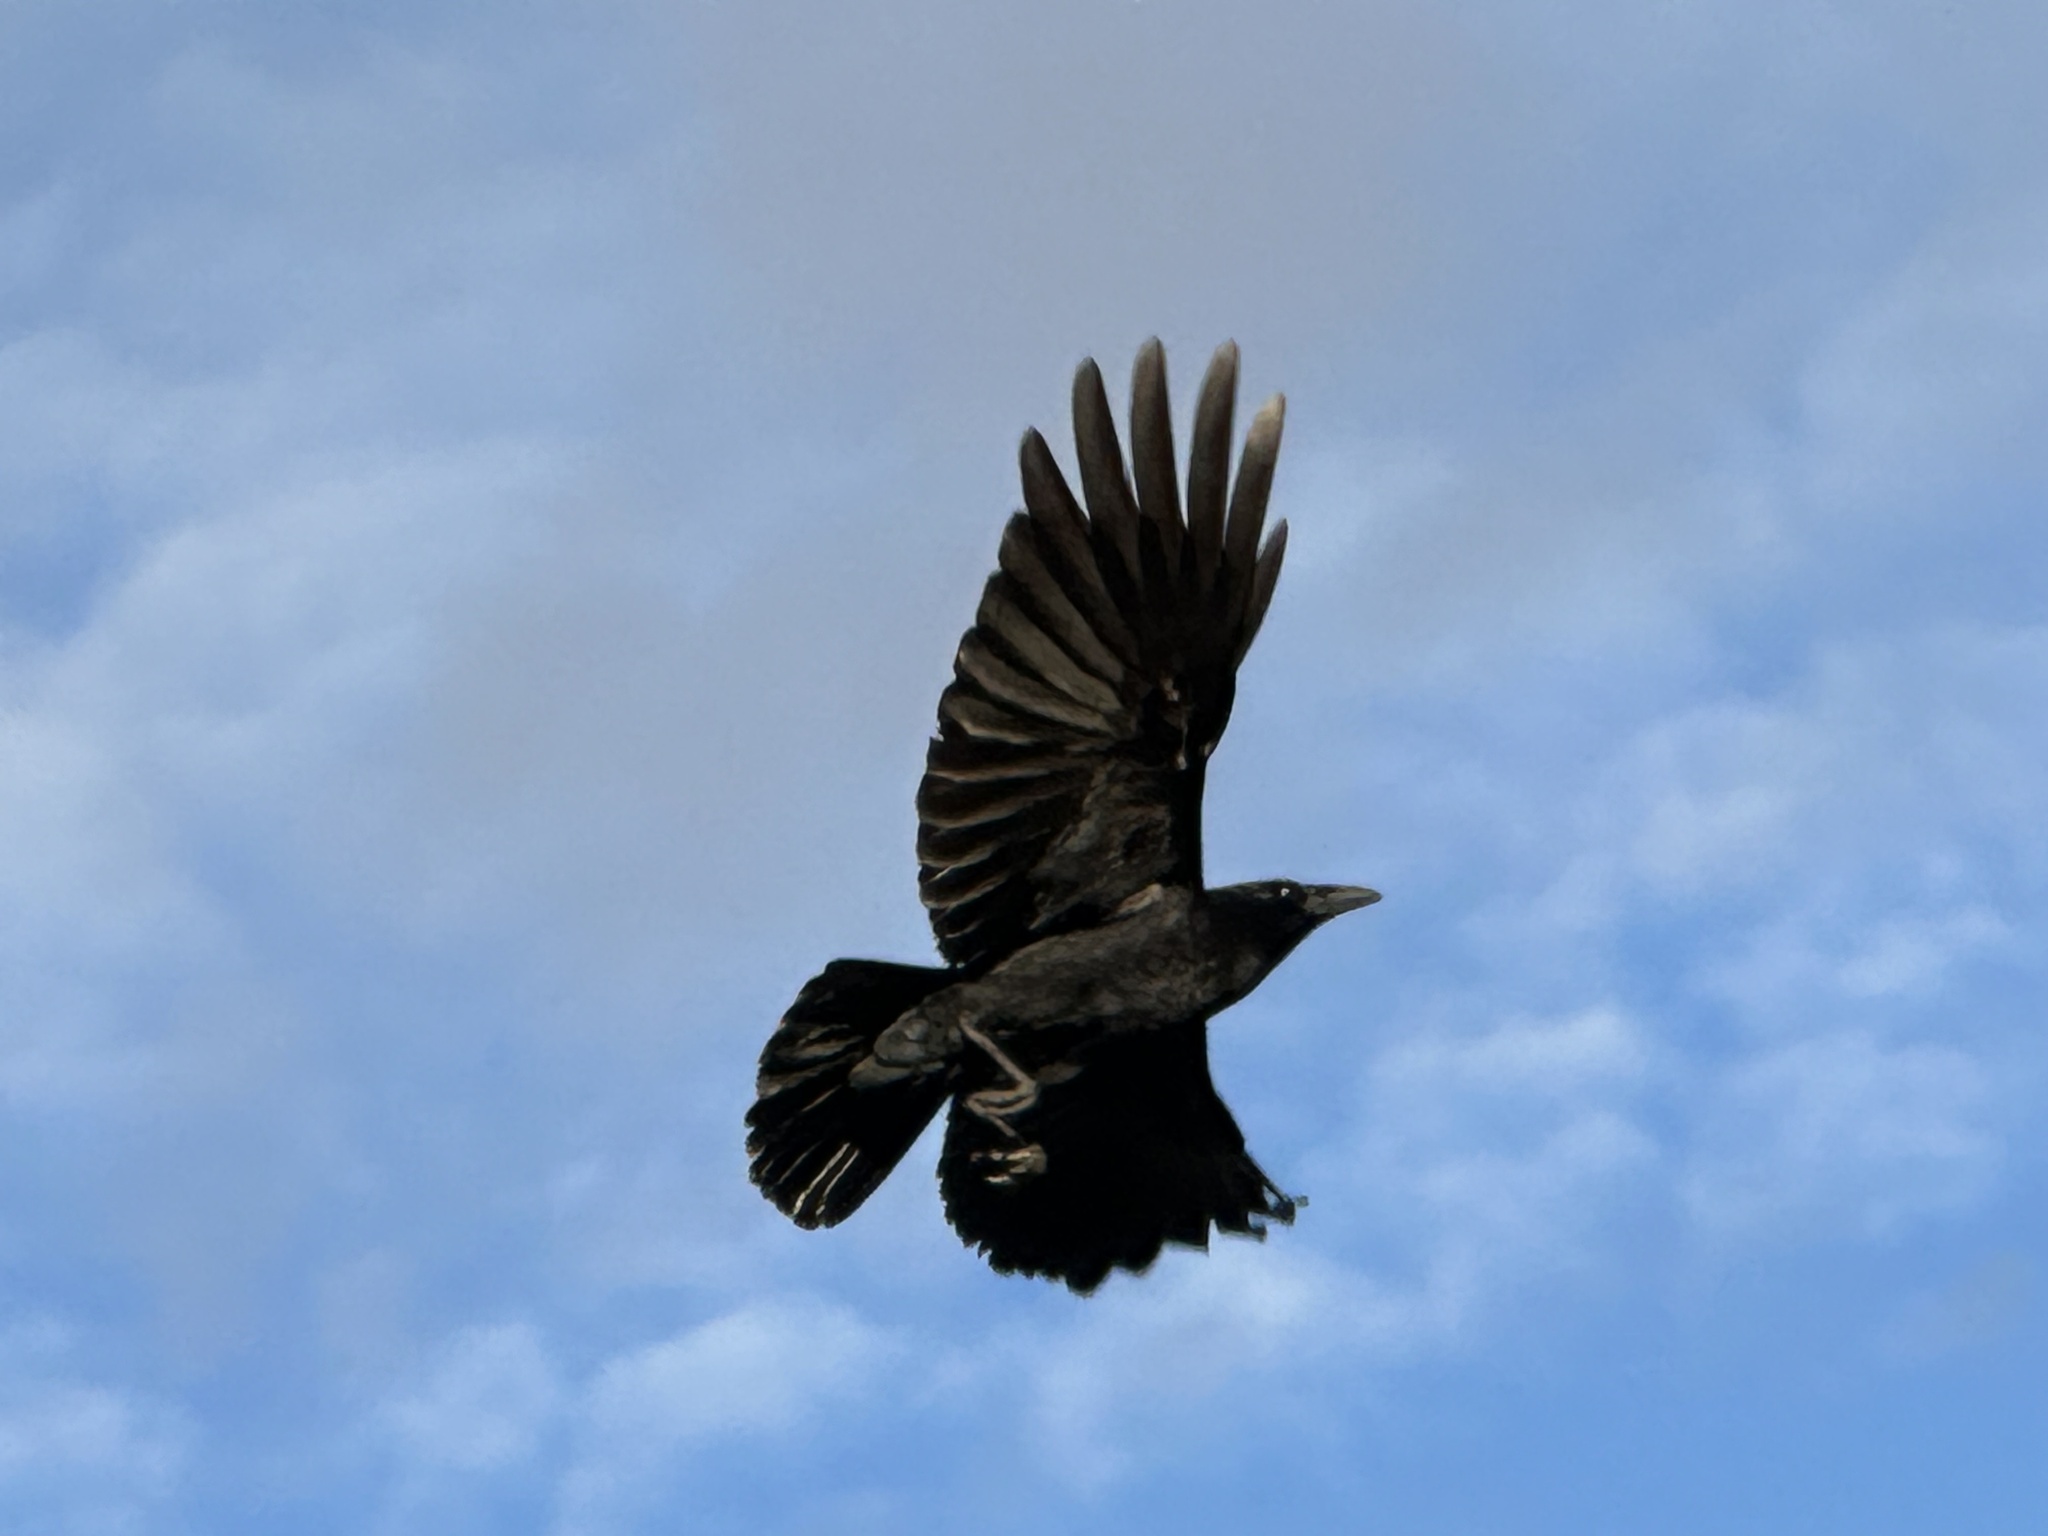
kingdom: Animalia
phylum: Chordata
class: Aves
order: Passeriformes
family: Corvidae
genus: Corvus
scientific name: Corvus brachyrhynchos
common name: American crow
